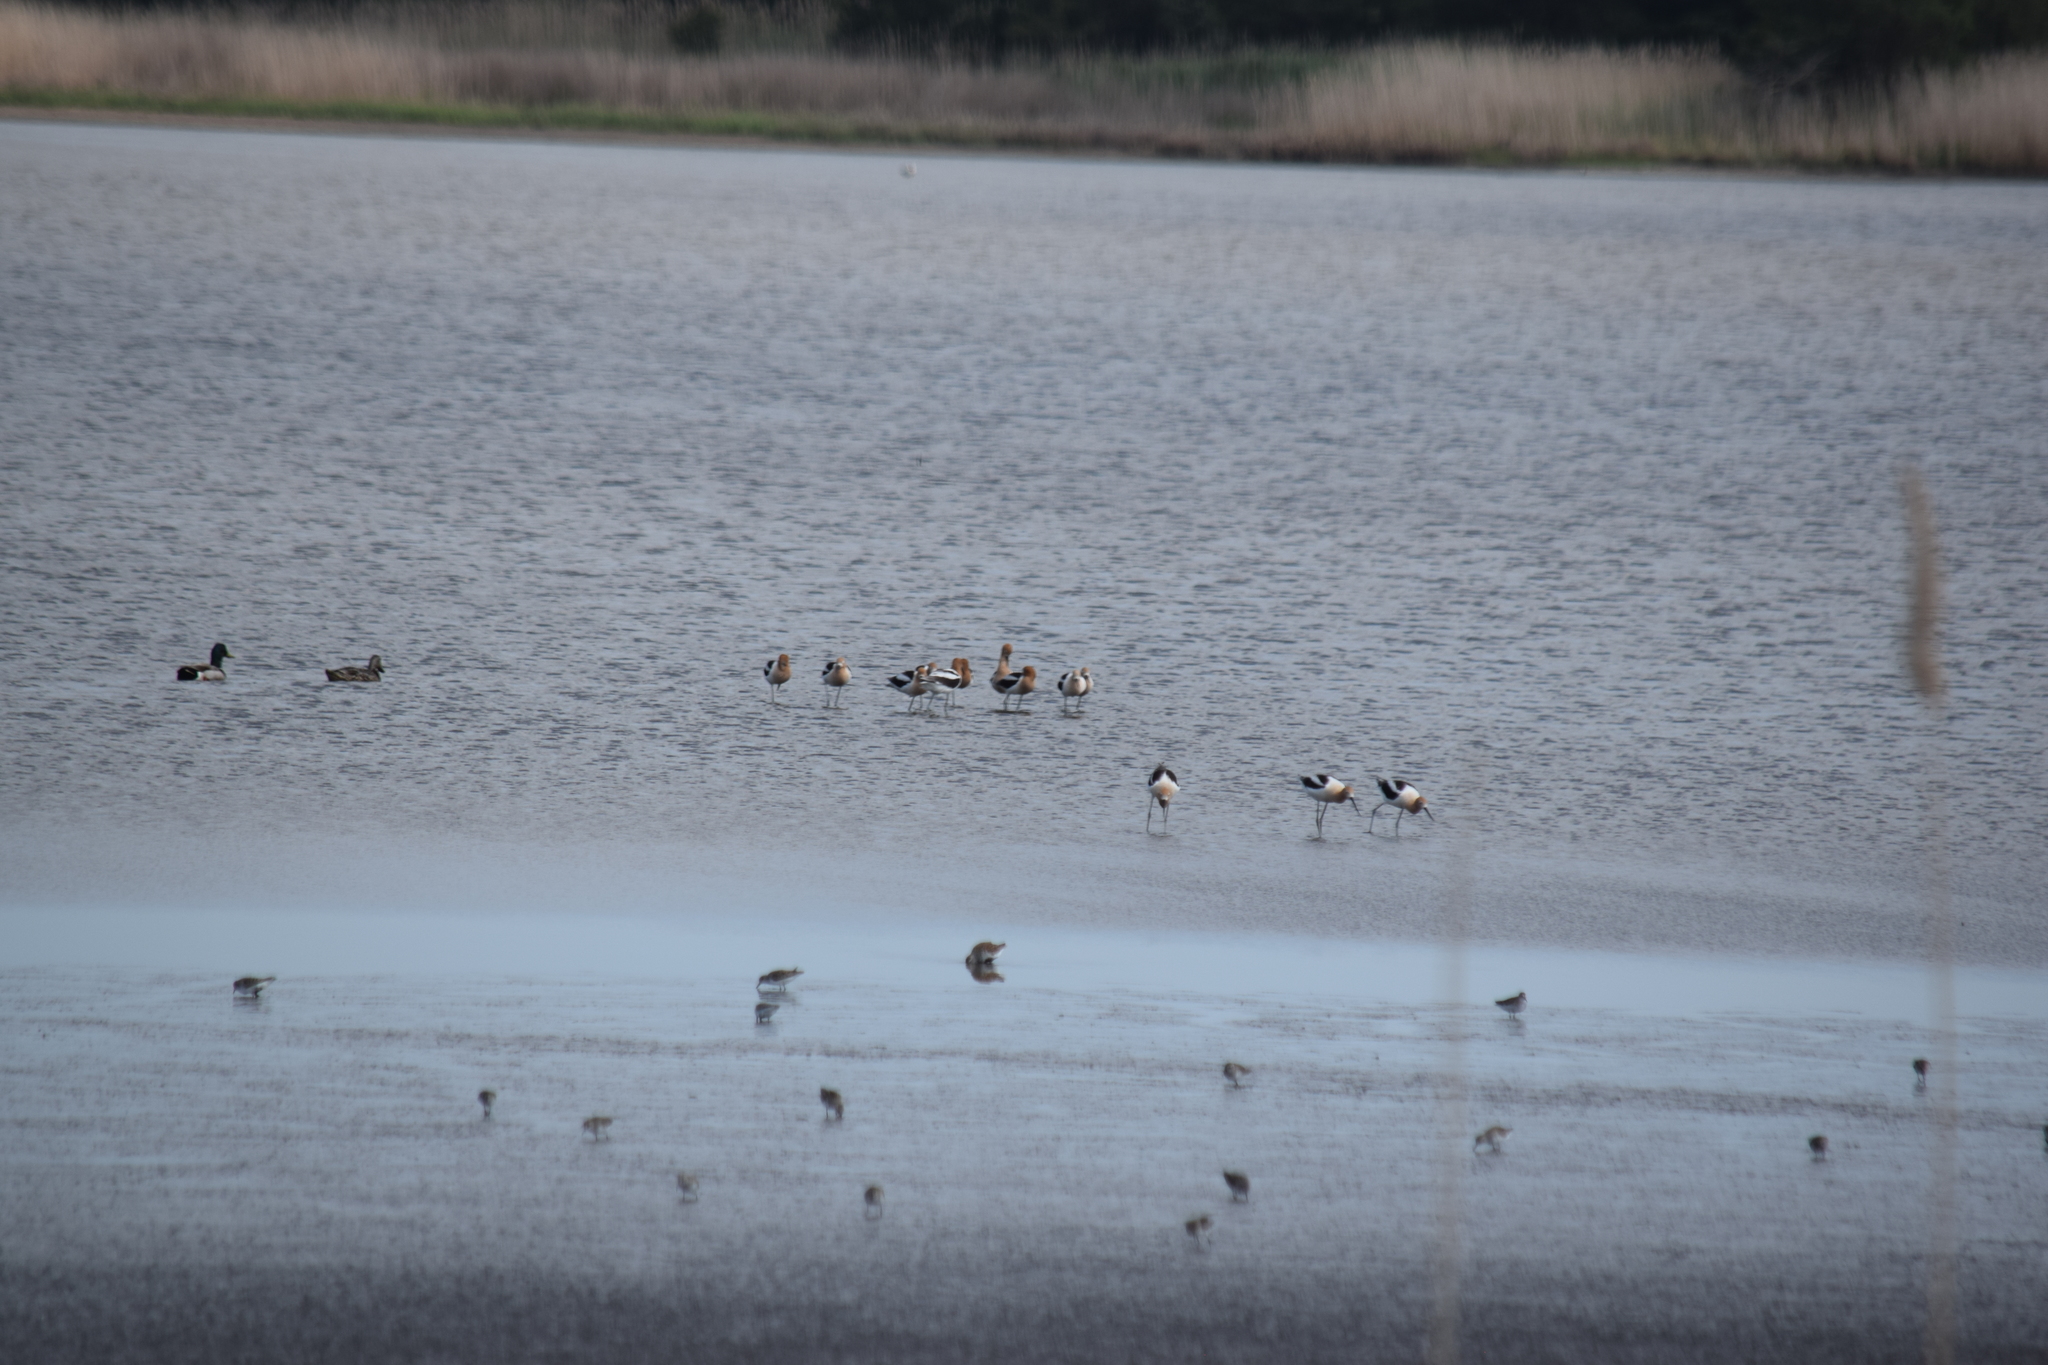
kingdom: Animalia
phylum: Chordata
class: Aves
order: Charadriiformes
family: Recurvirostridae
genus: Recurvirostra
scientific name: Recurvirostra americana
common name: American avocet
